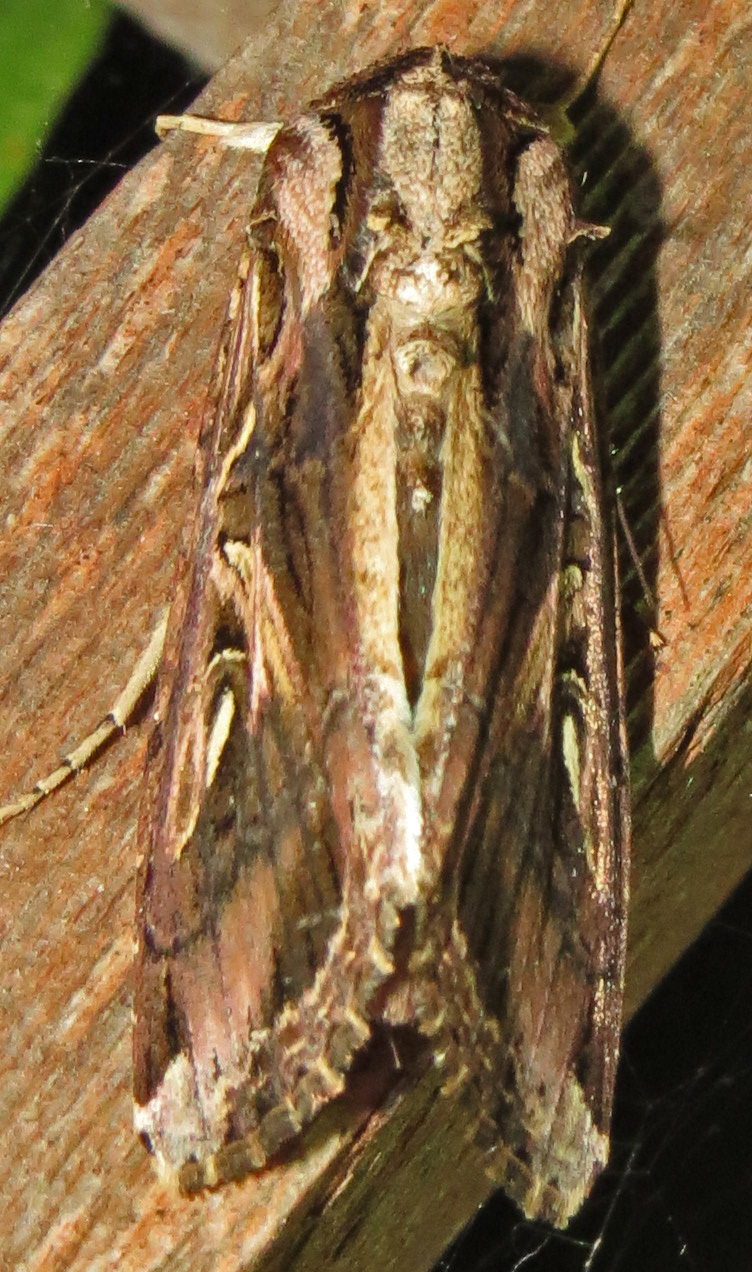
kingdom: Animalia
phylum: Arthropoda
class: Insecta
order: Lepidoptera
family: Noctuidae
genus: Spodoptera
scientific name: Spodoptera dolichos
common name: Sweetpotato armyworm
